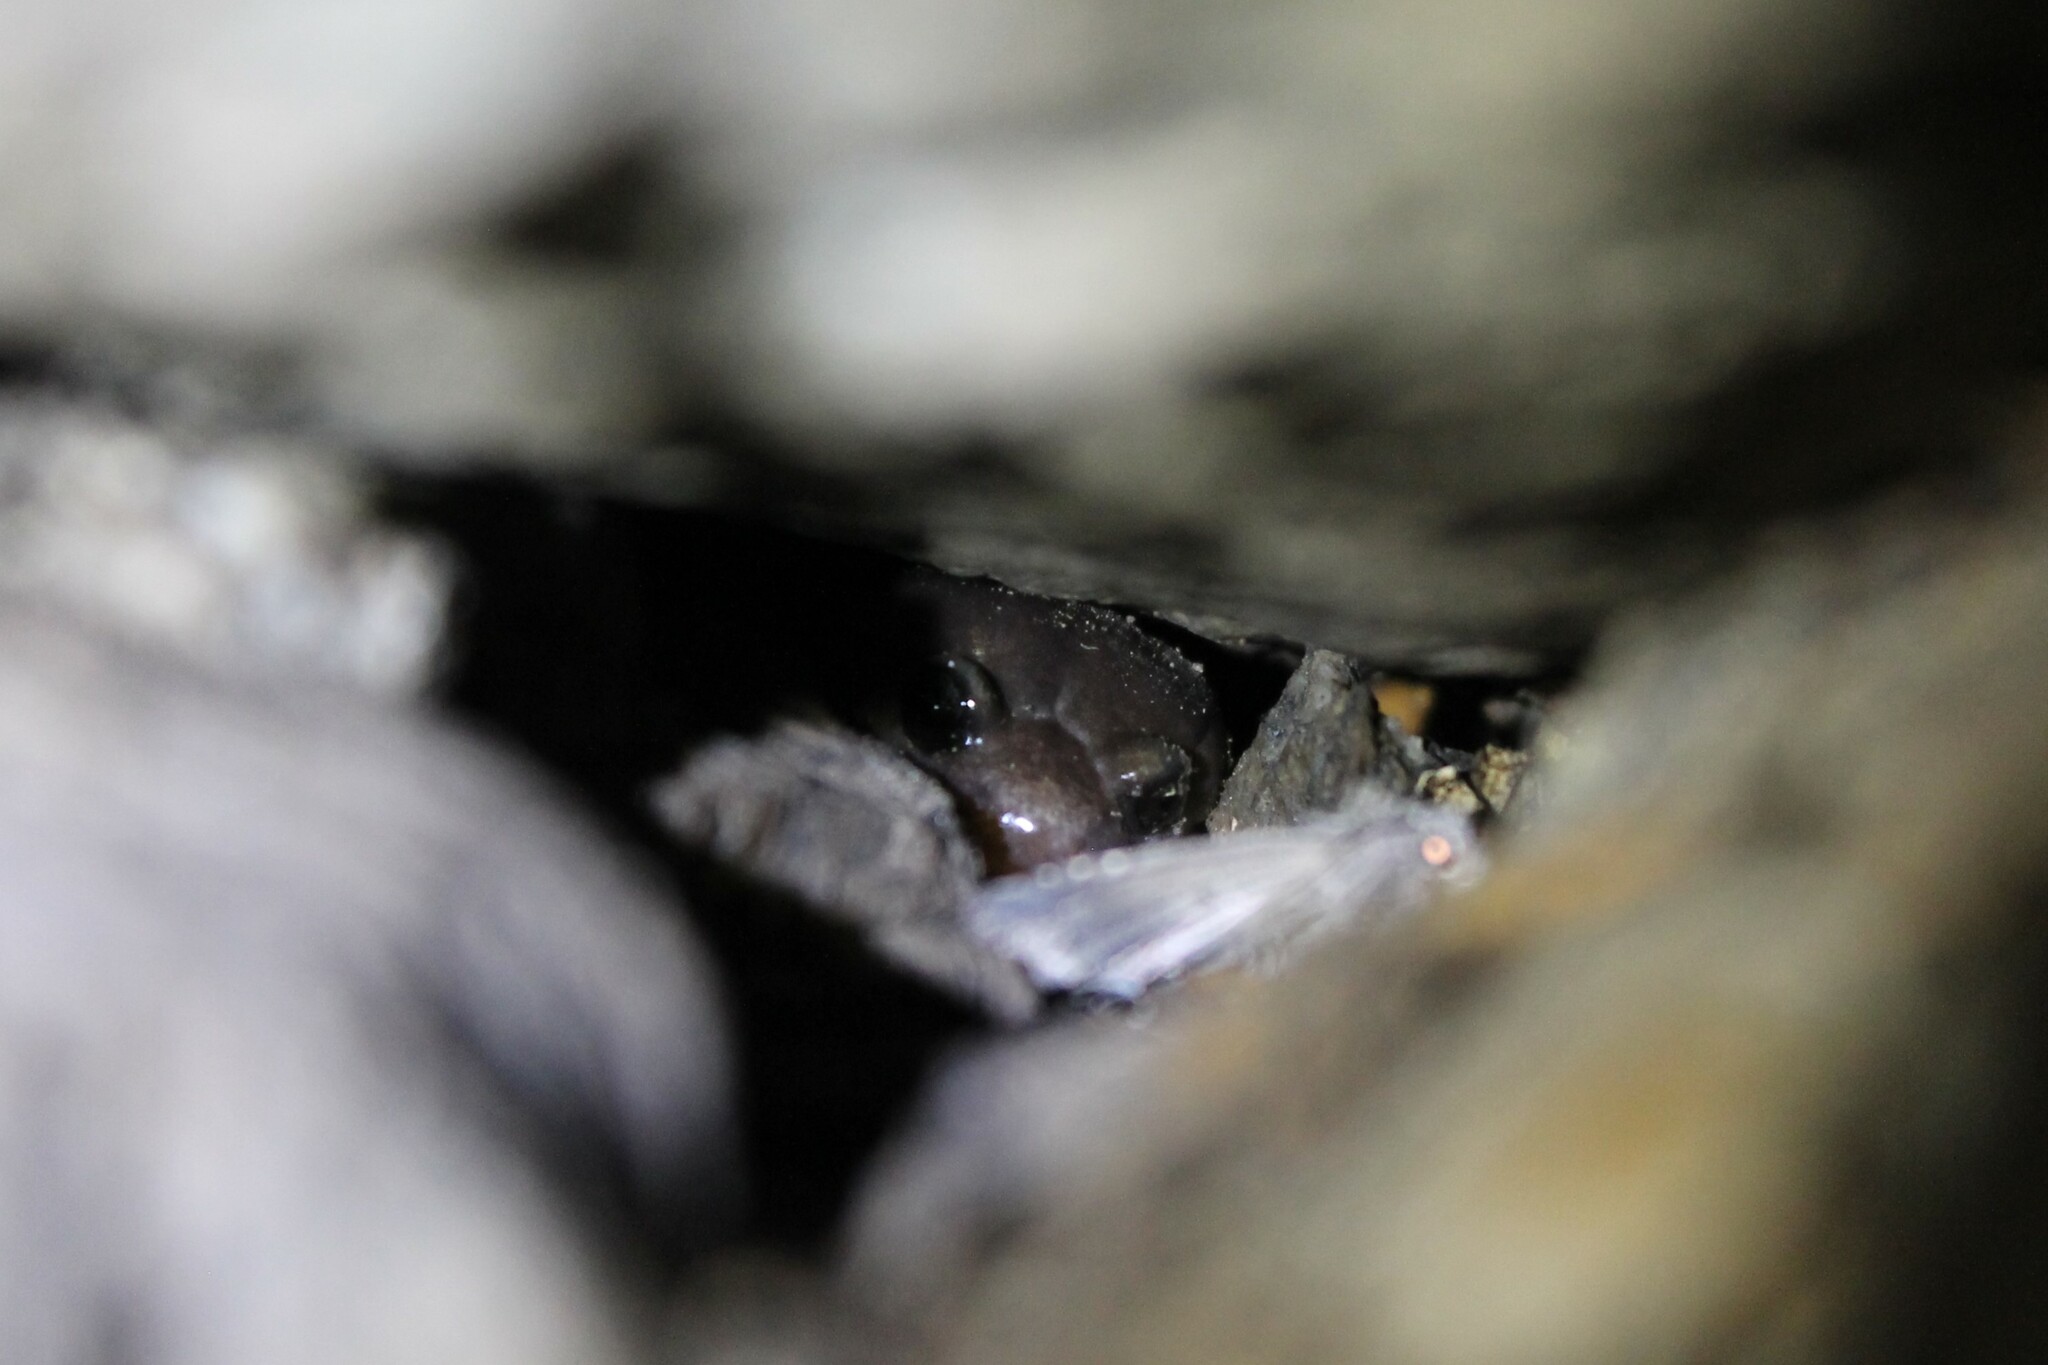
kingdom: Animalia
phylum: Chordata
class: Amphibia
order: Caudata
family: Plethodontidae
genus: Aneides
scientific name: Aneides lugubris
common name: Arboreal salamander
